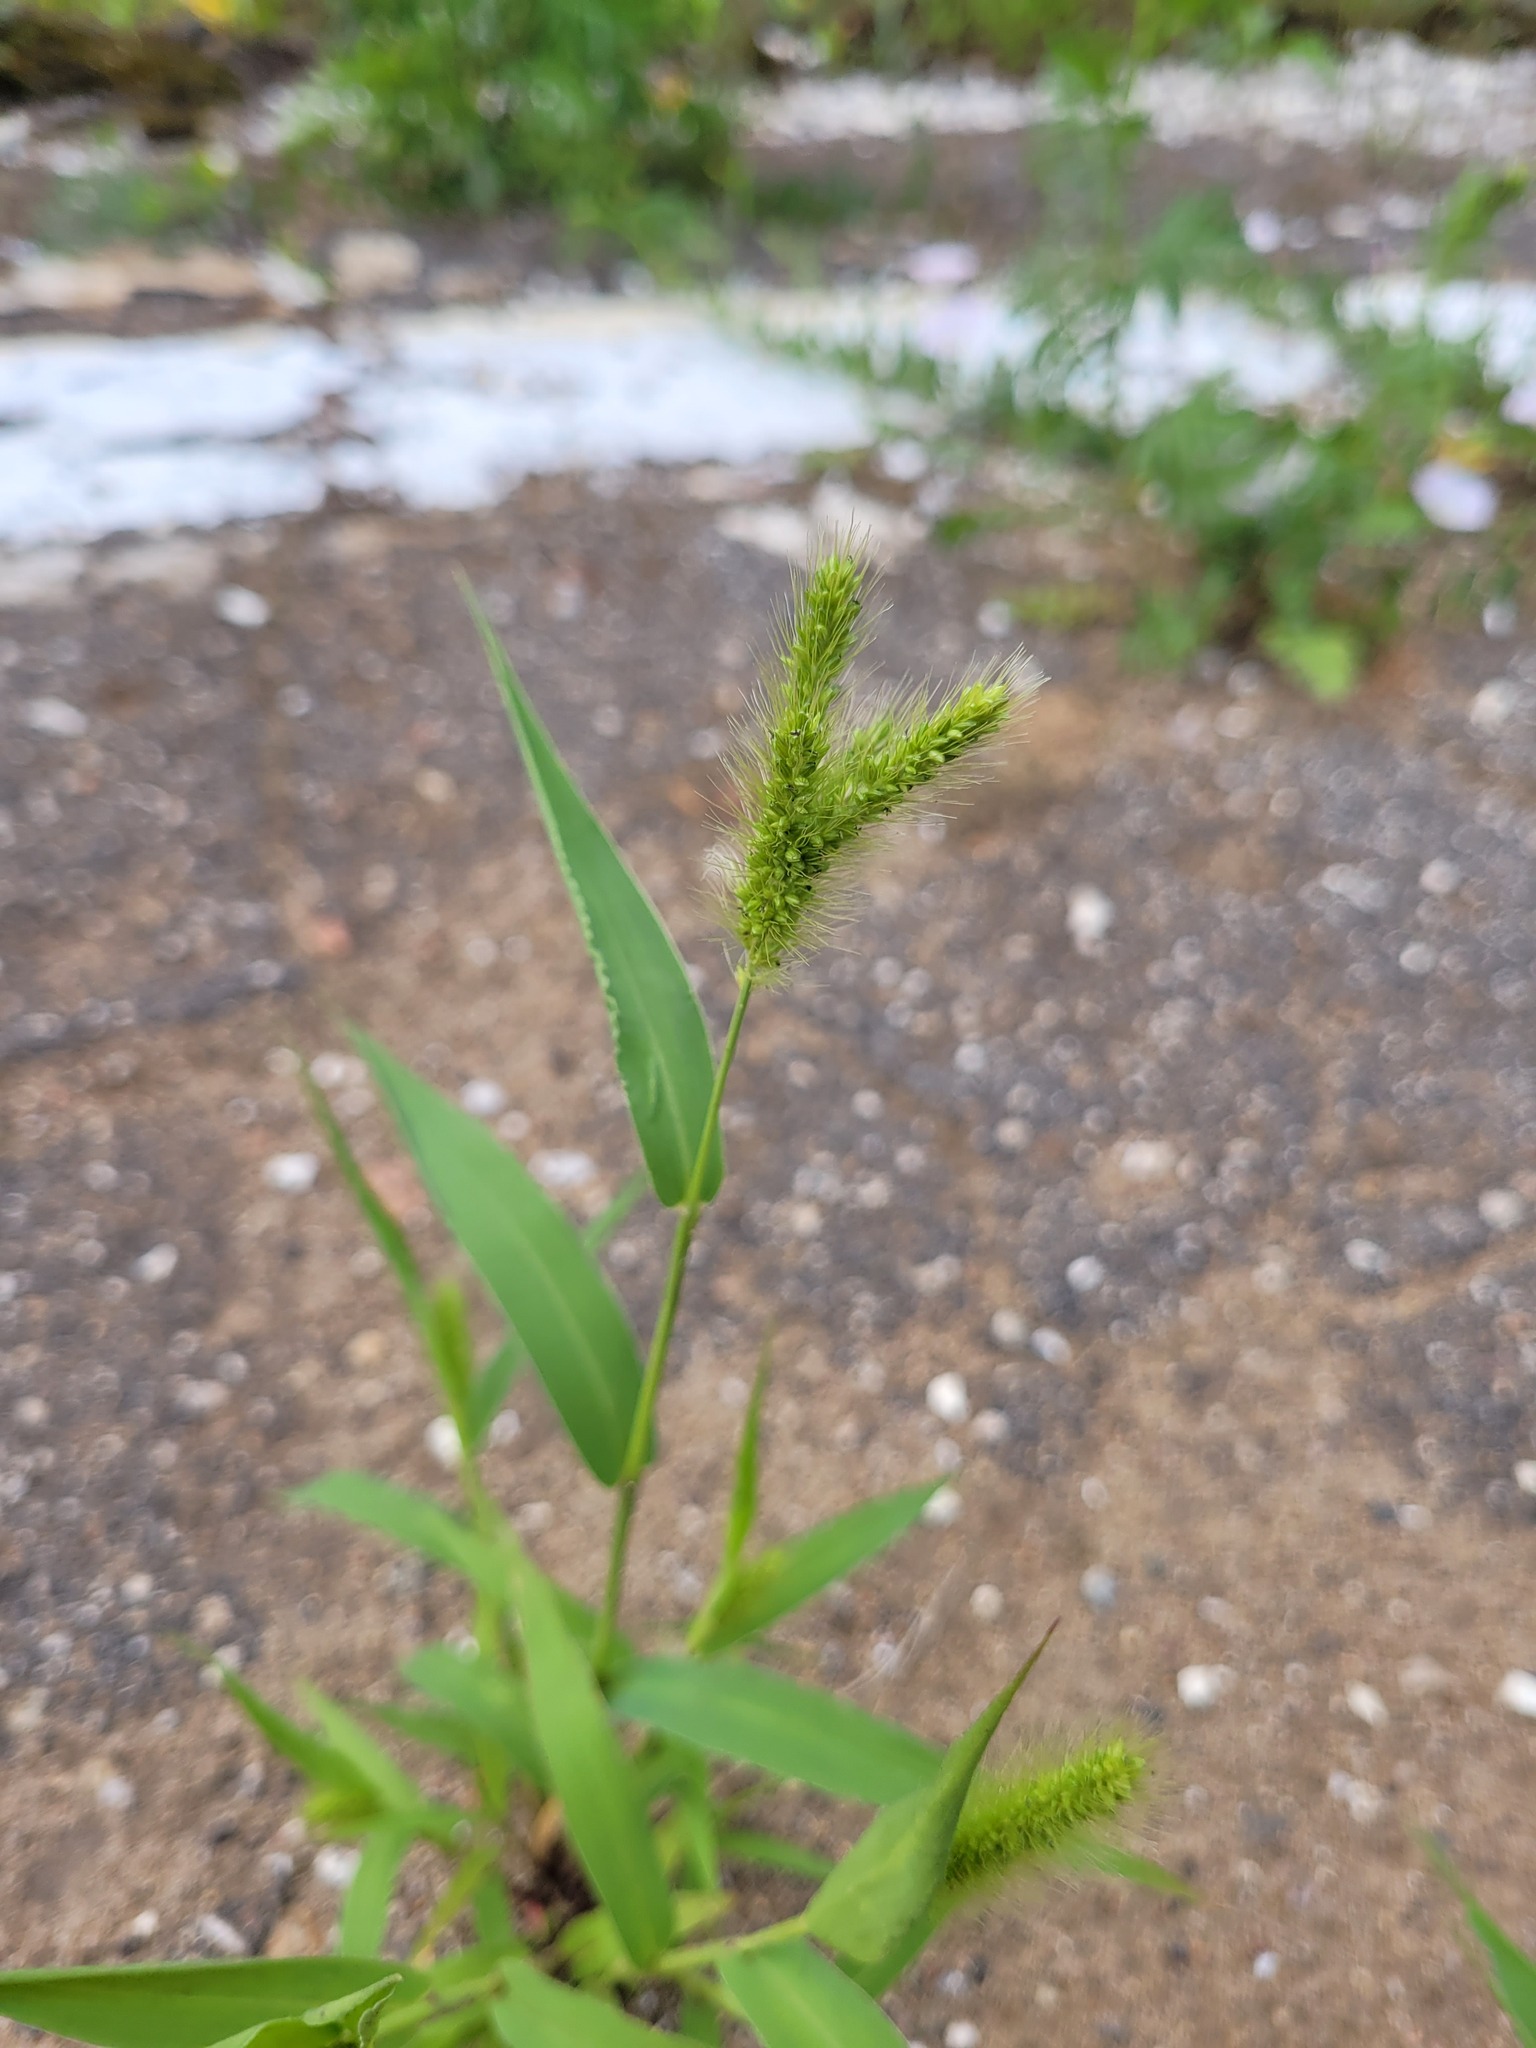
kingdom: Plantae
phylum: Tracheophyta
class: Liliopsida
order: Poales
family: Poaceae
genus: Setaria
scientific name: Setaria viridis
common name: Green bristlegrass
